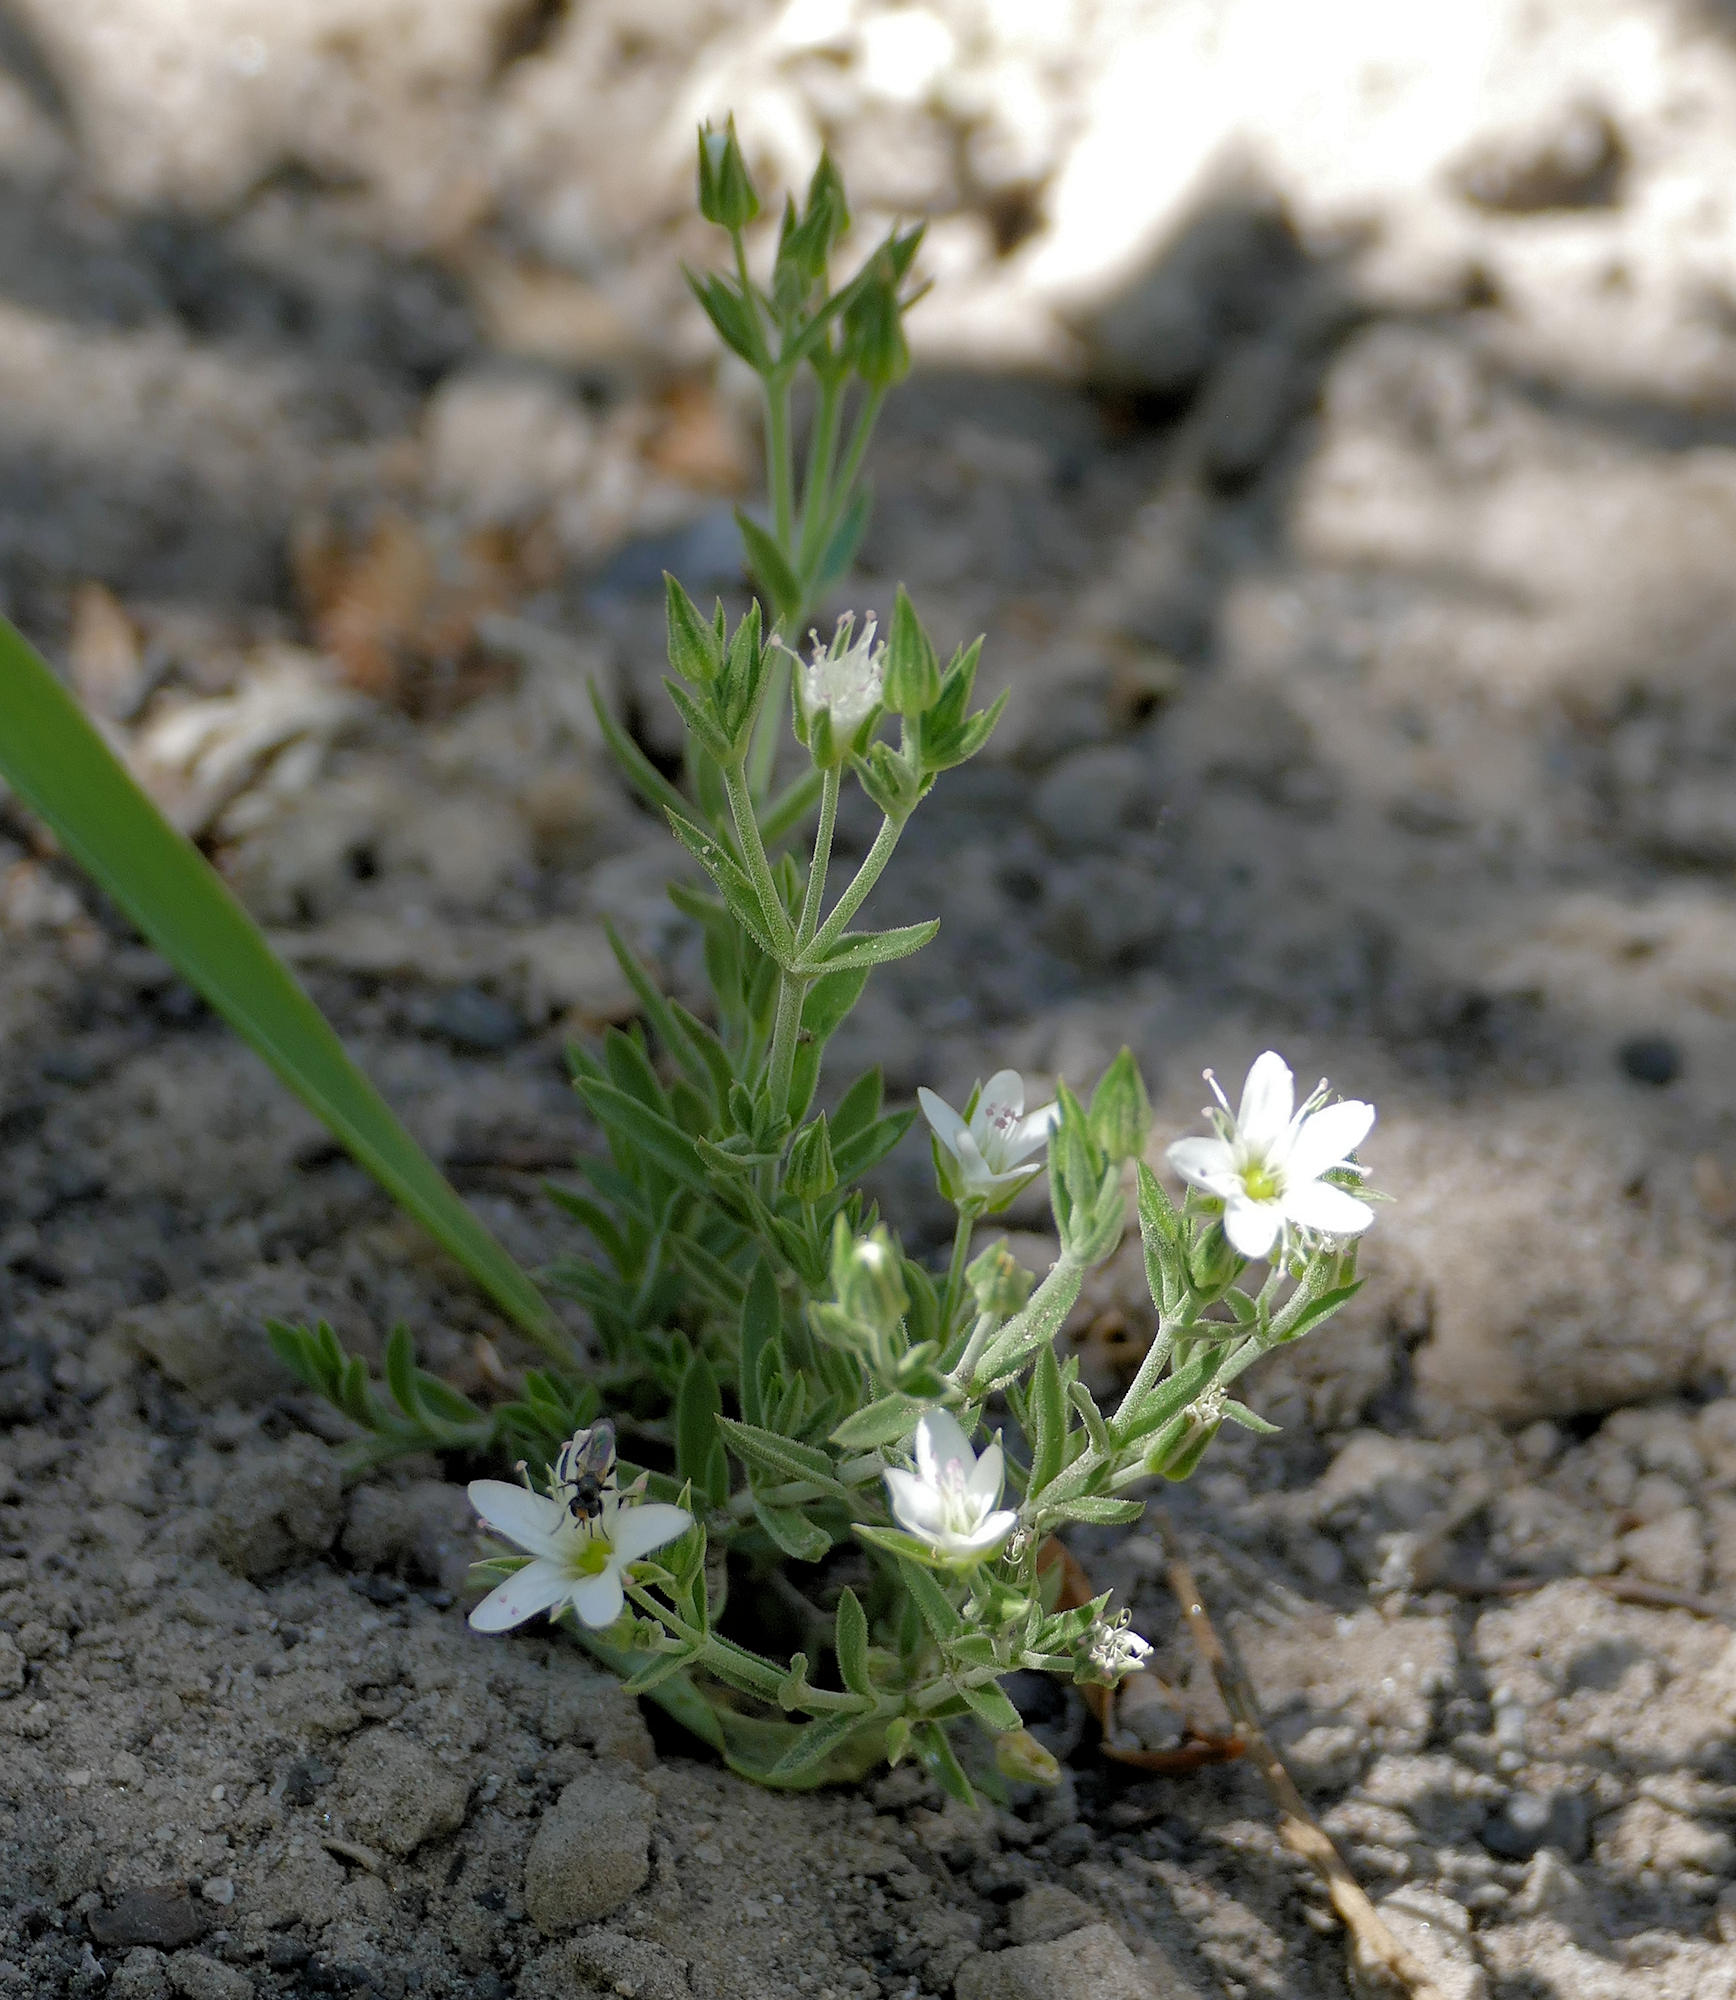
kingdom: Animalia
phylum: Arthropoda
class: Insecta
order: Diptera
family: Conopidae
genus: Thecophora
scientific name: Thecophora propinqua
